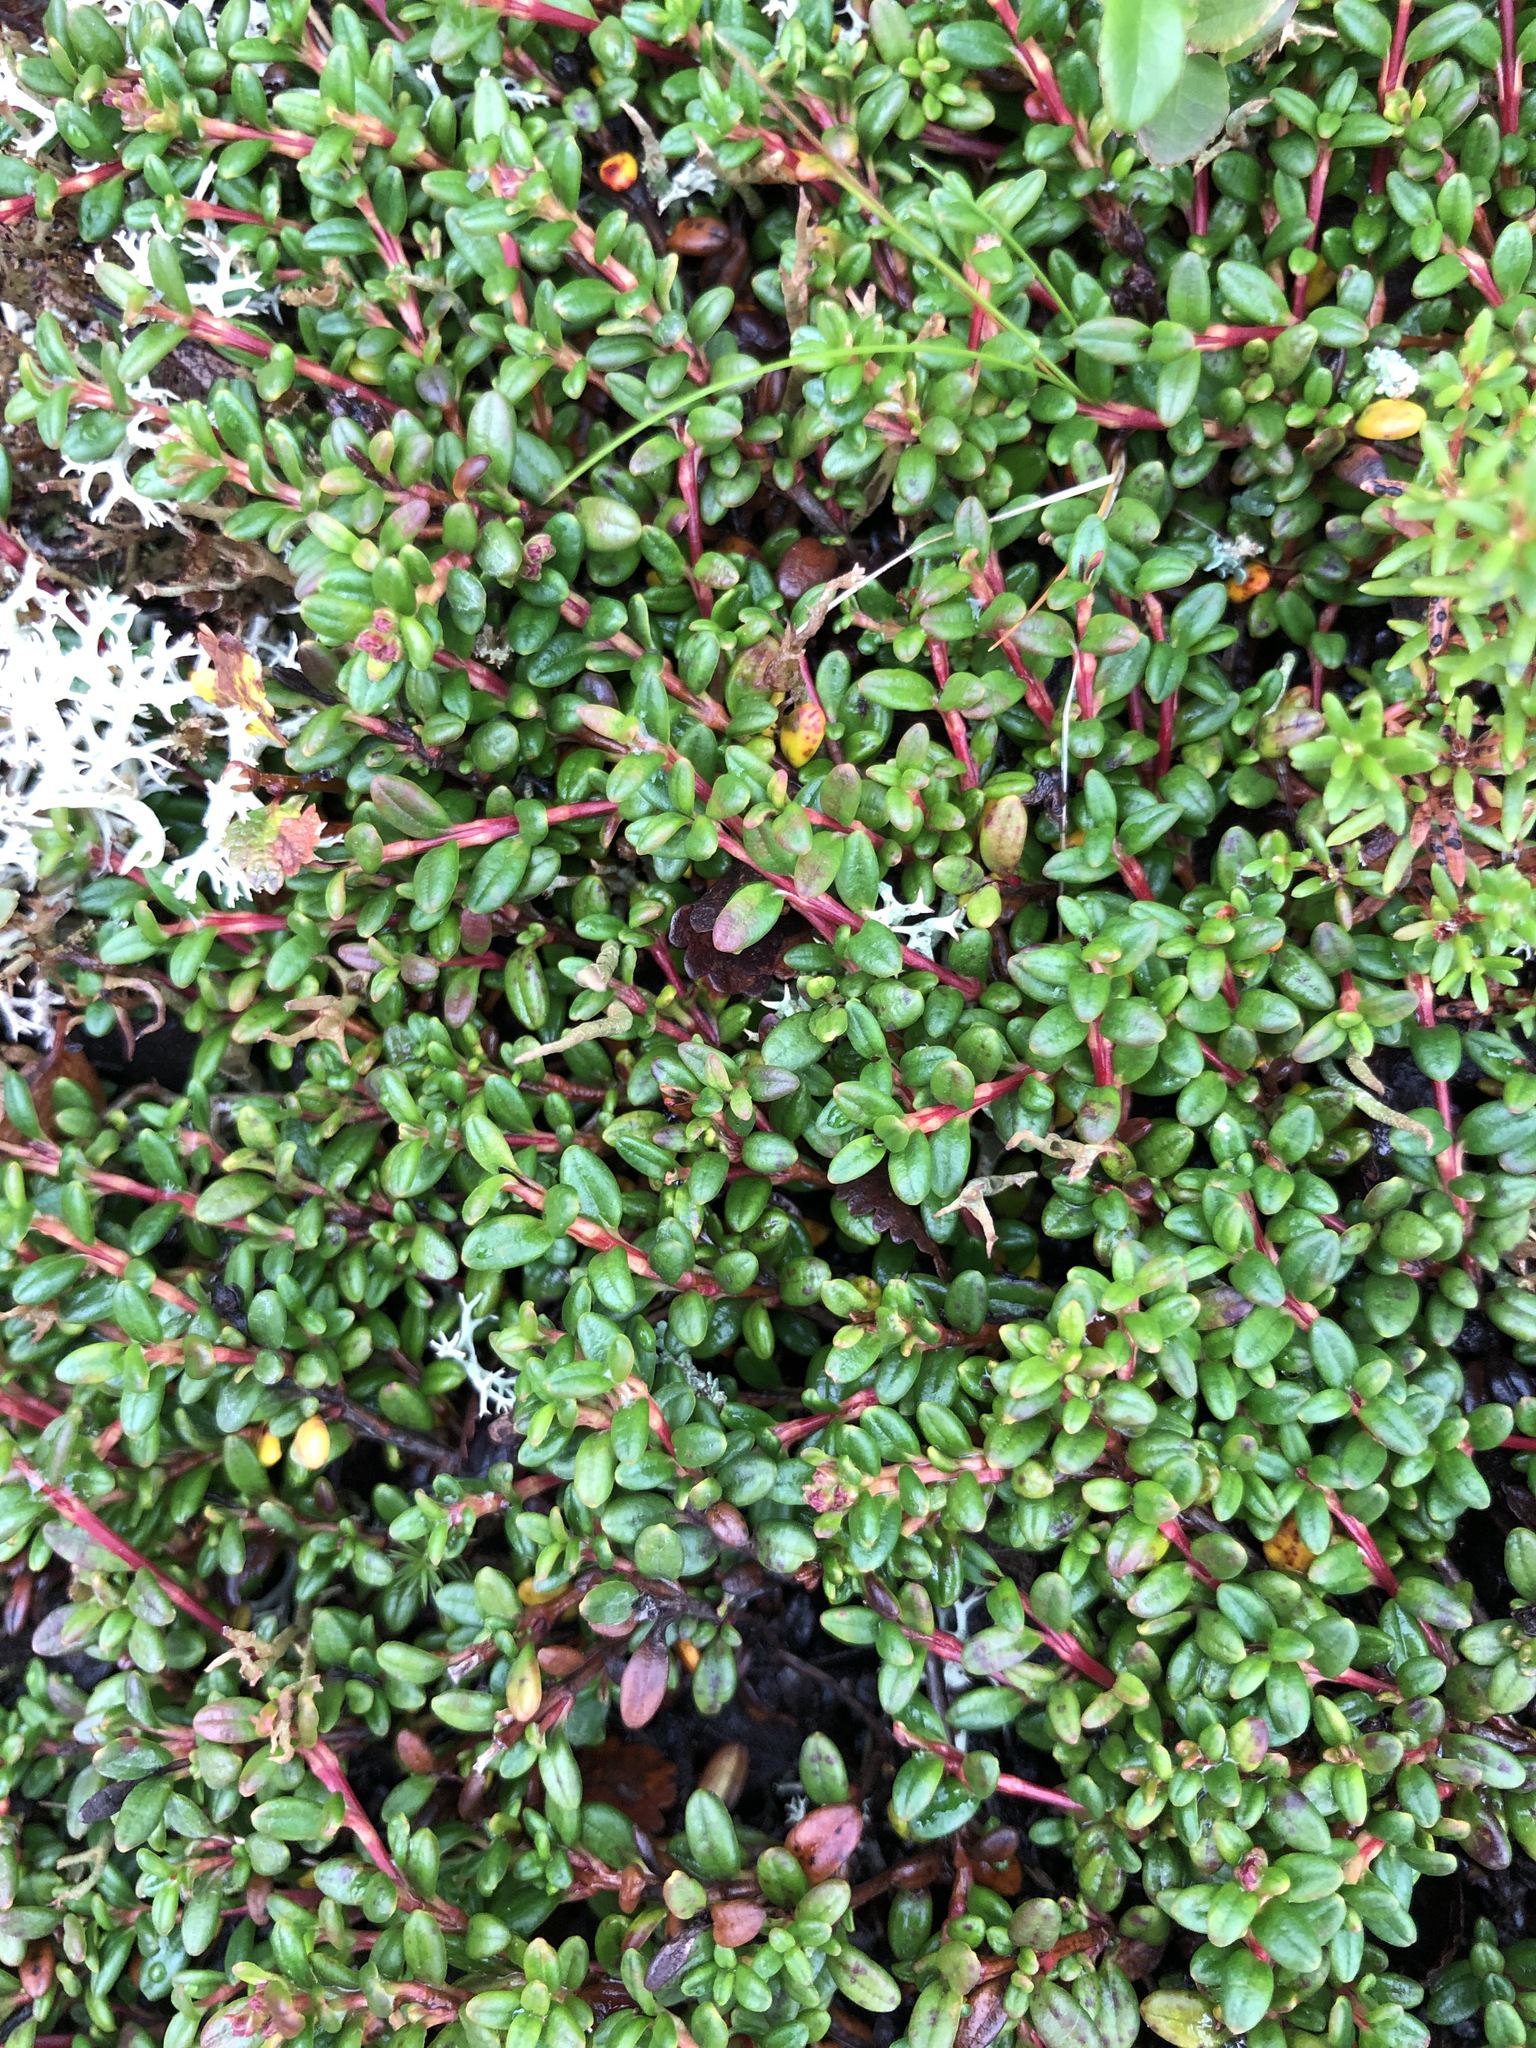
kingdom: Plantae
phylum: Tracheophyta
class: Magnoliopsida
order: Ericales
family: Ericaceae
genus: Kalmia
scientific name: Kalmia procumbens
